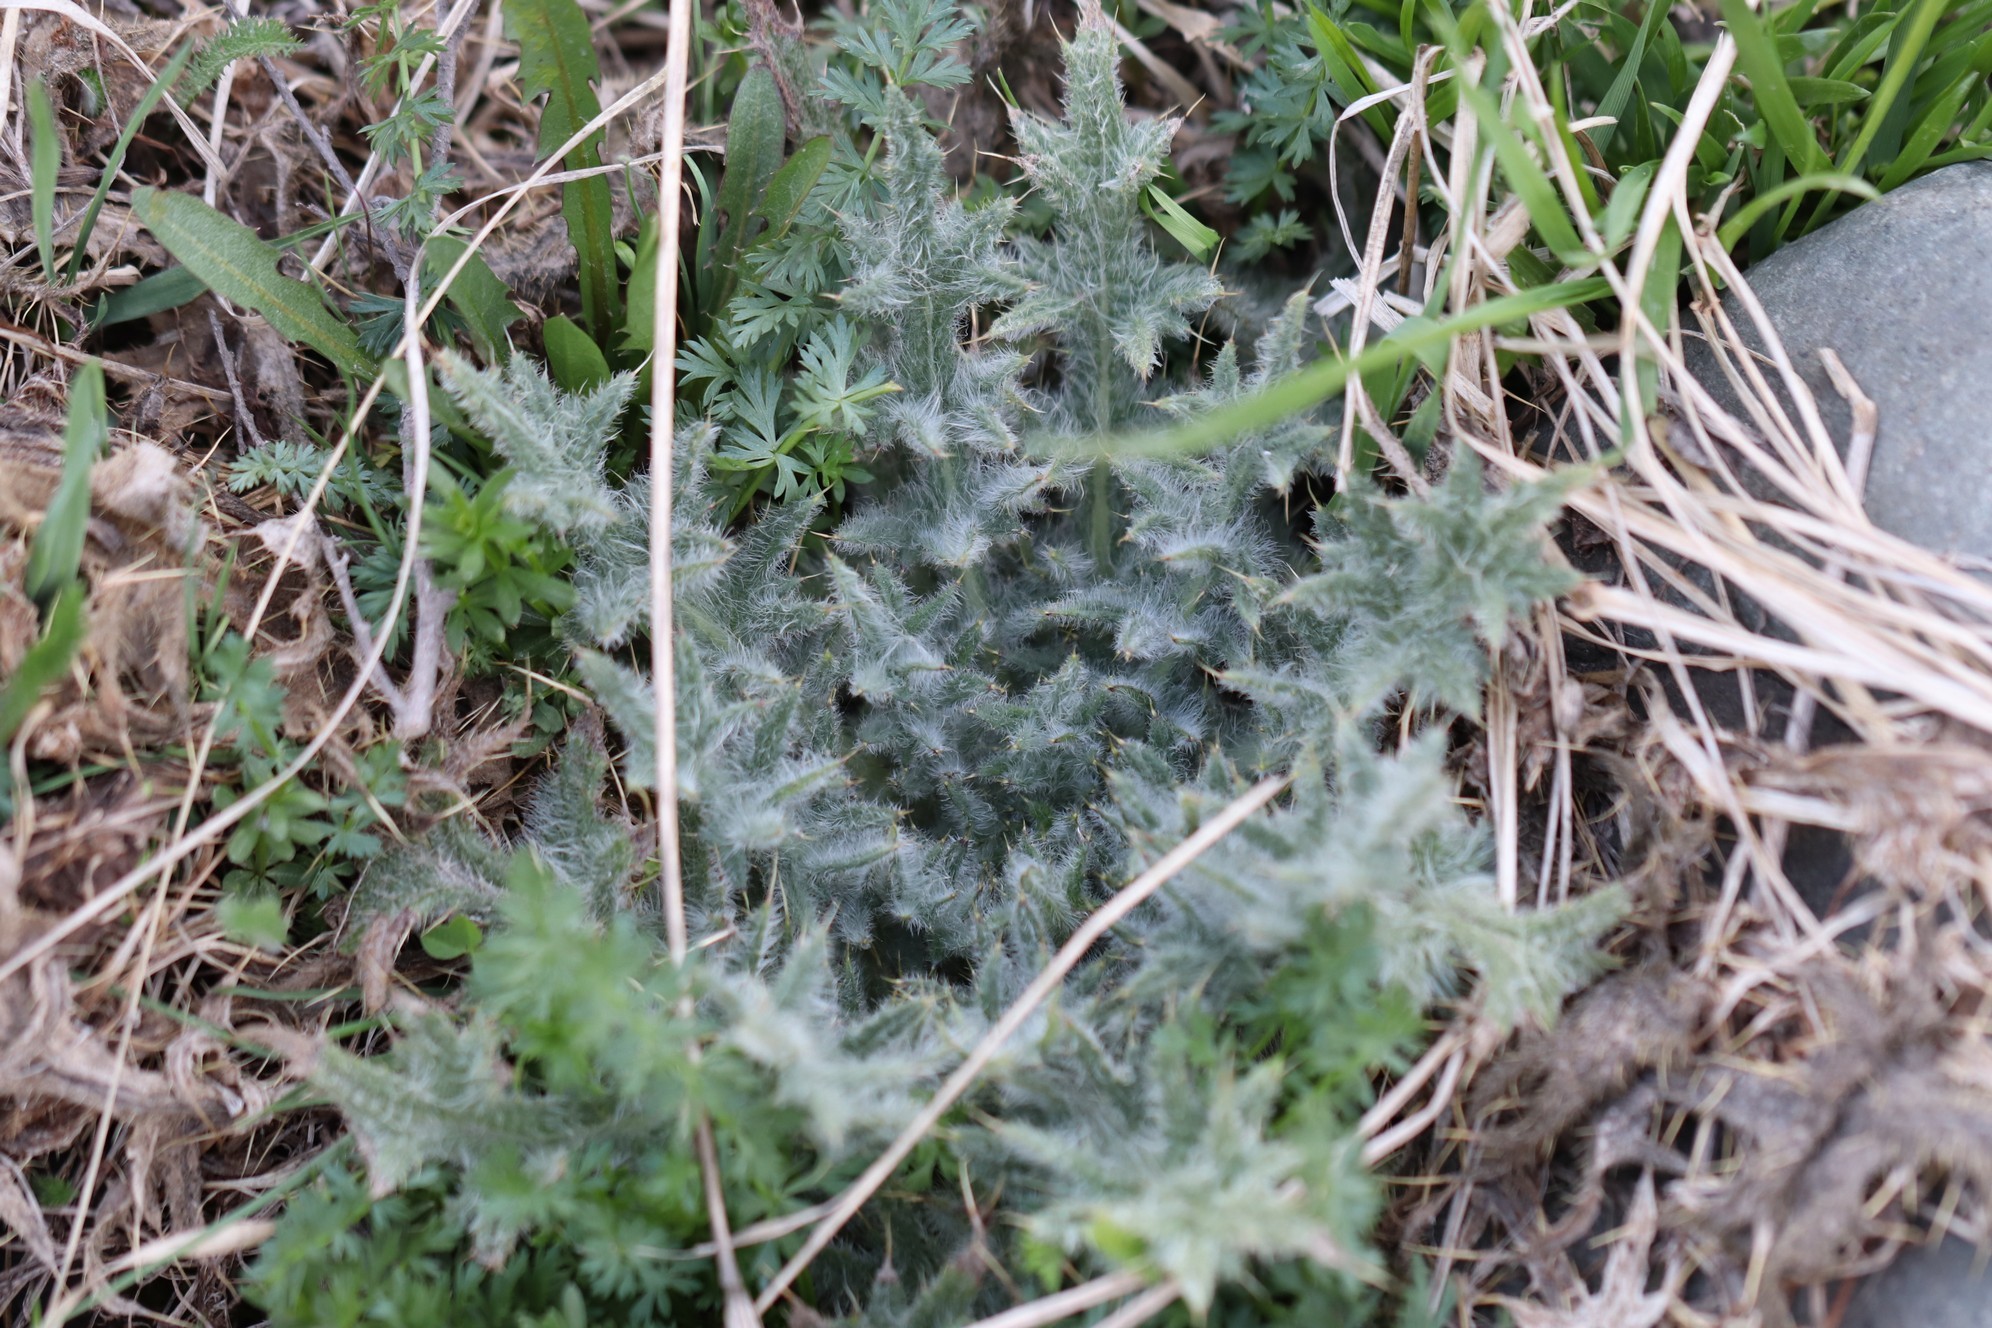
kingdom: Plantae
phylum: Tracheophyta
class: Magnoliopsida
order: Asterales
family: Asteraceae
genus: Cirsium
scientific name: Cirsium vulgare
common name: Bull thistle
